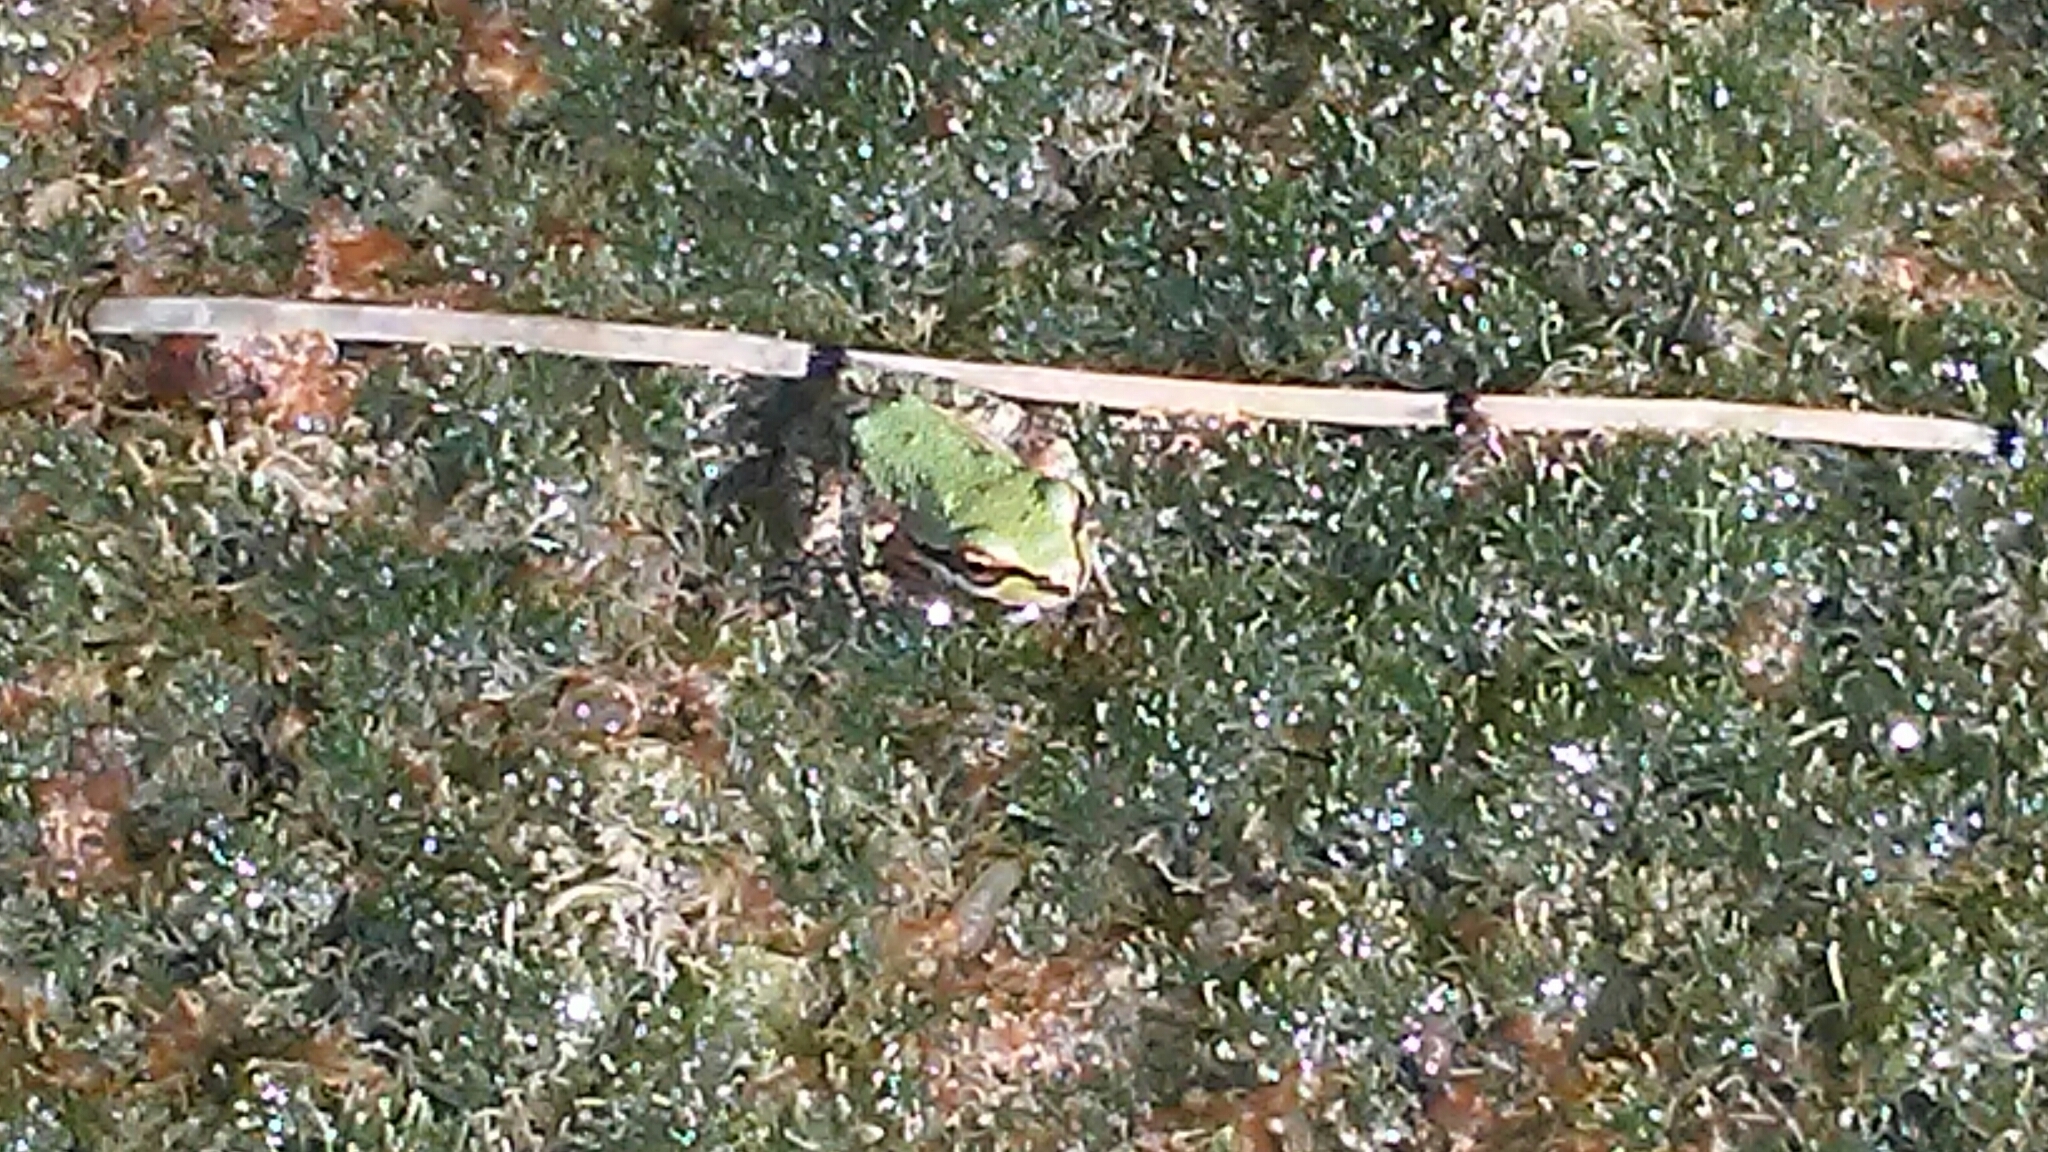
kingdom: Animalia
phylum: Chordata
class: Amphibia
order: Anura
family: Hylidae
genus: Pseudacris
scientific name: Pseudacris regilla
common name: Pacific chorus frog
